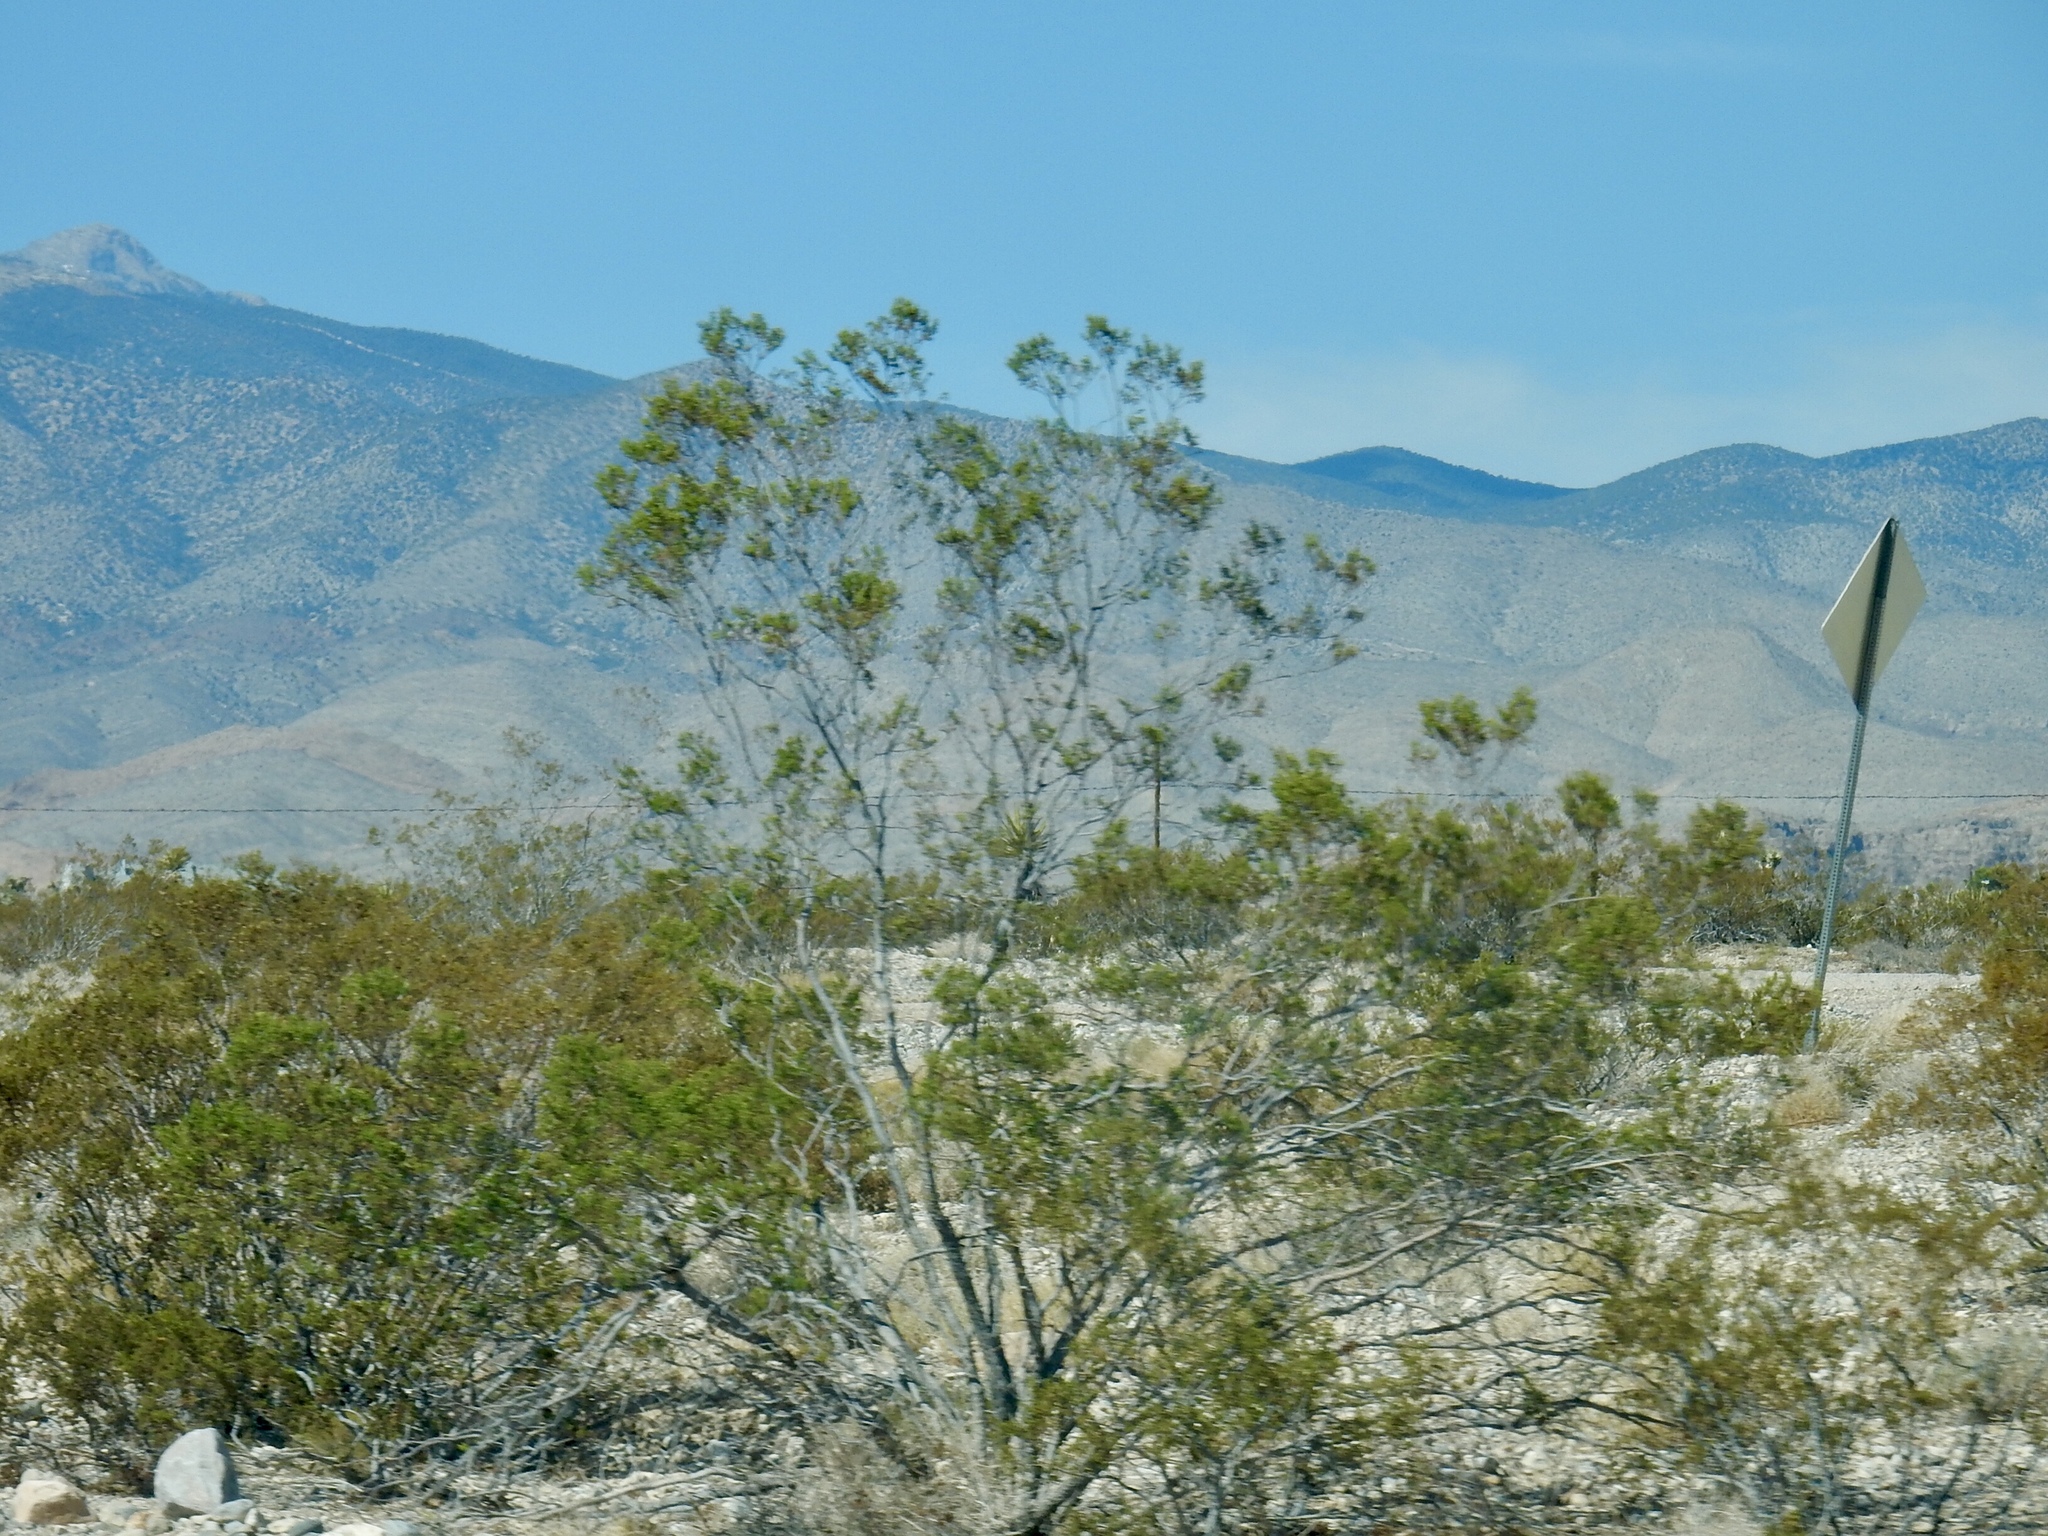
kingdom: Plantae
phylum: Tracheophyta
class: Magnoliopsida
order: Zygophyllales
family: Zygophyllaceae
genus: Larrea
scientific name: Larrea tridentata
